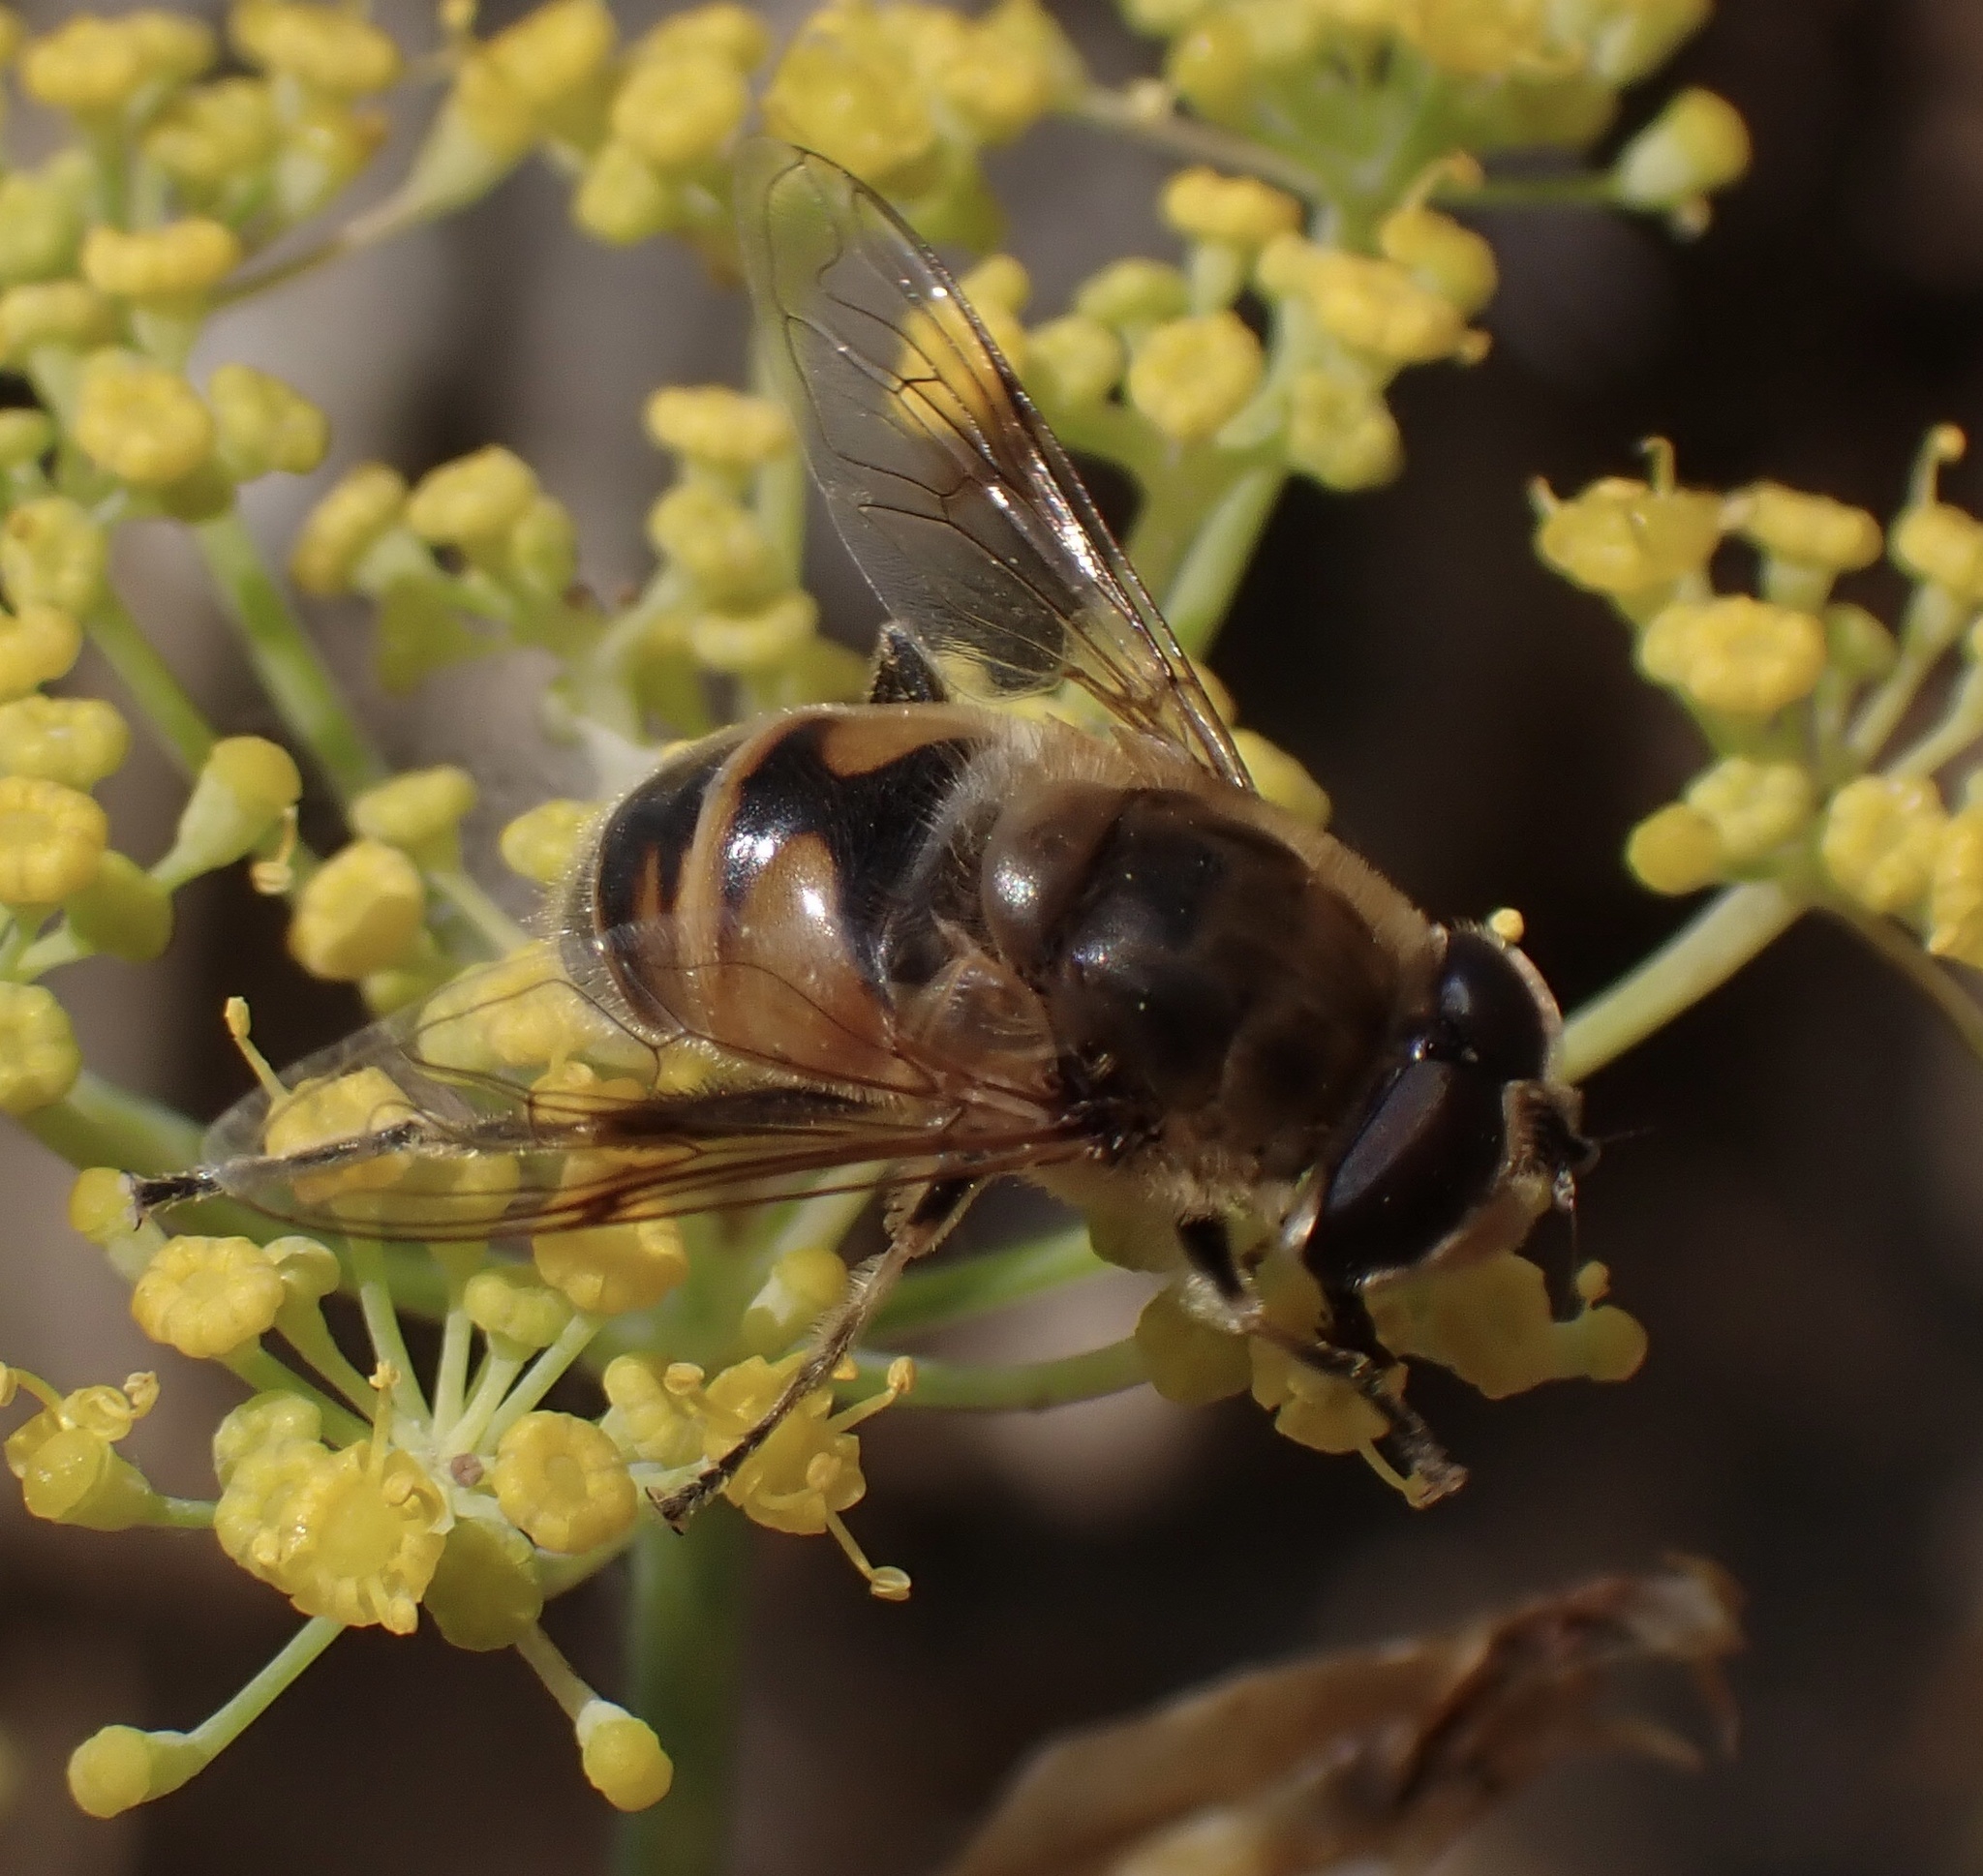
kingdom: Animalia
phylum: Arthropoda
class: Insecta
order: Diptera
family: Syrphidae
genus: Eristalis
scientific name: Eristalis tenax
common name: Drone fly
